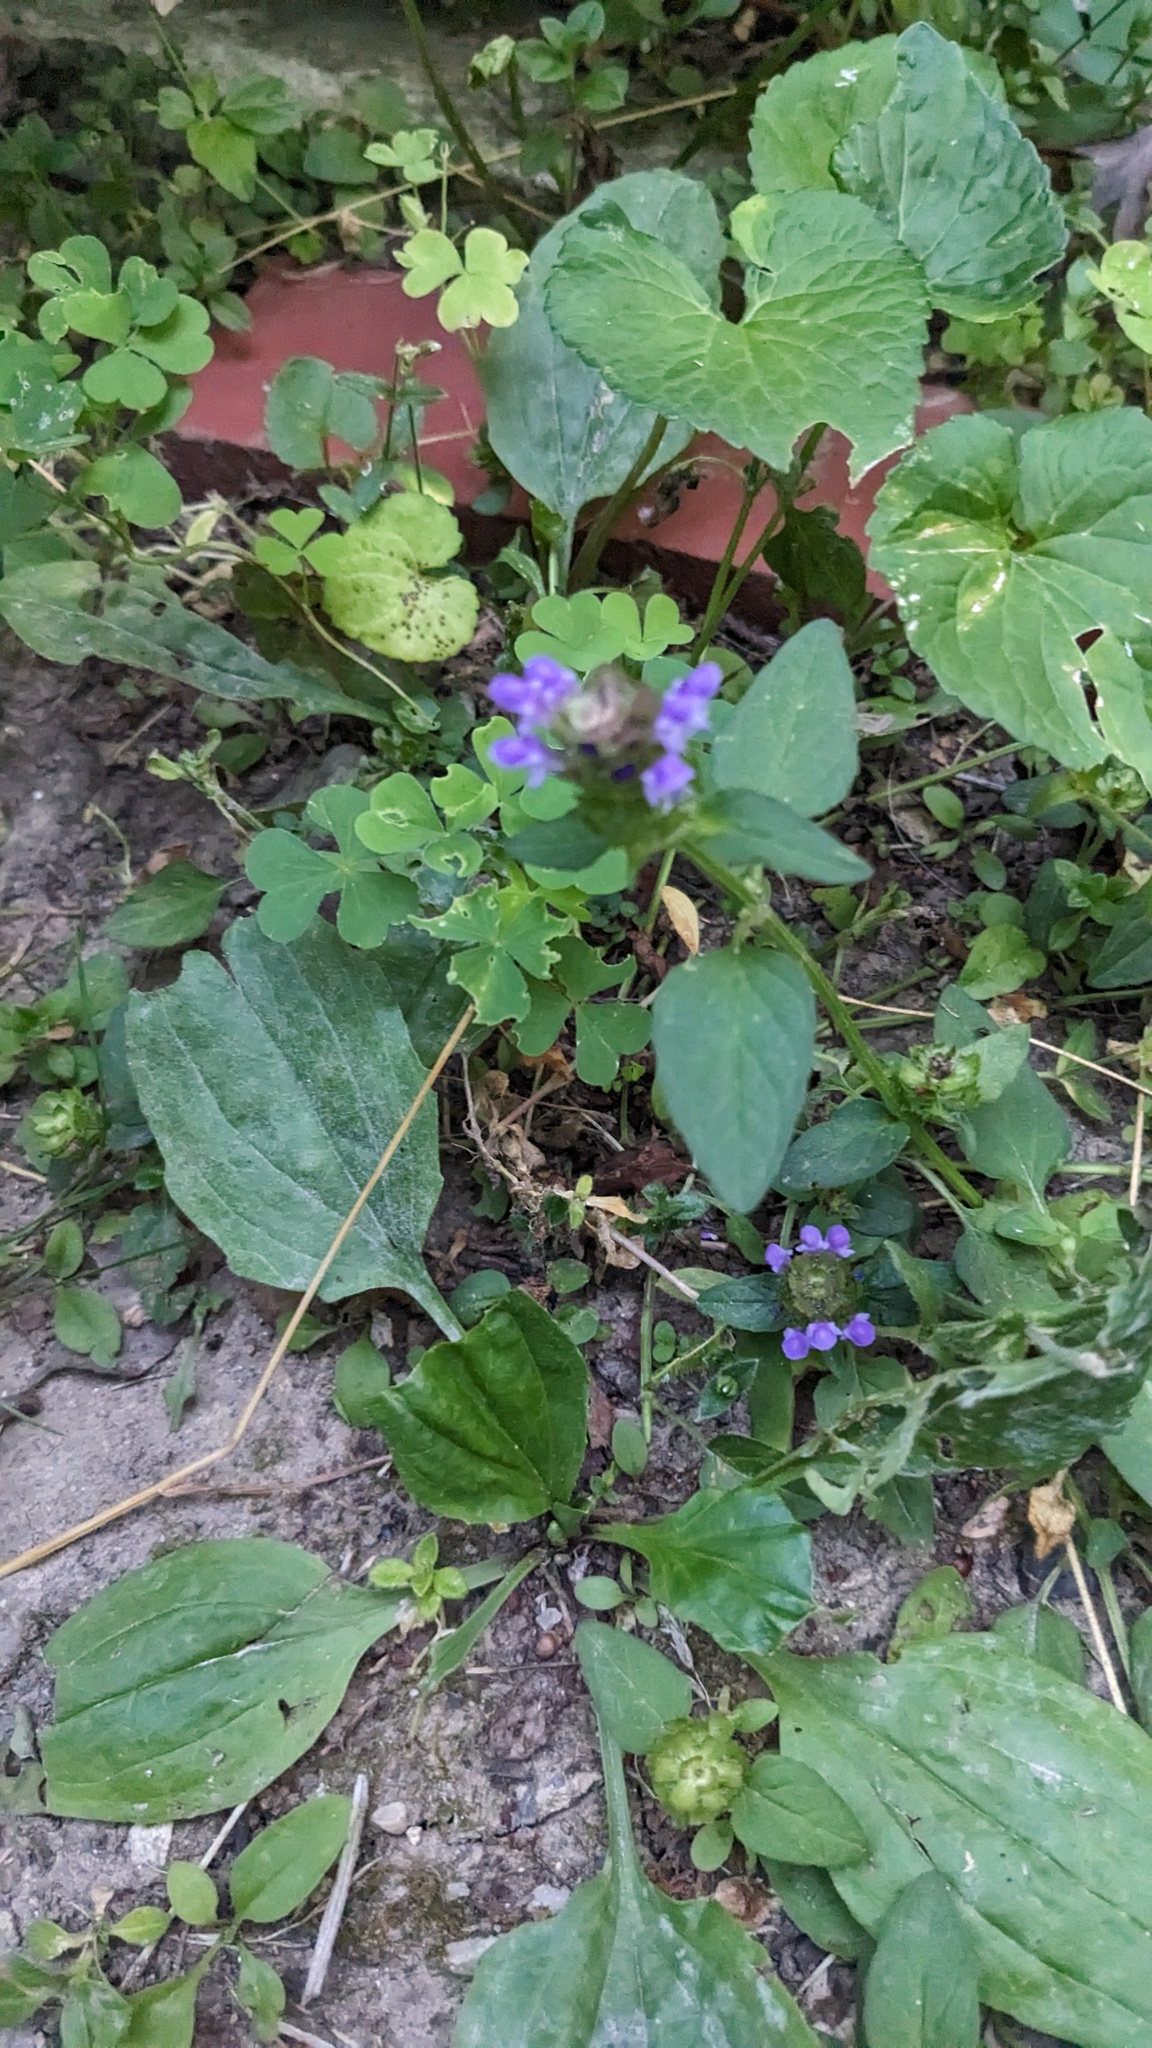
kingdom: Plantae
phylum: Tracheophyta
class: Magnoliopsida
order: Lamiales
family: Lamiaceae
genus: Prunella
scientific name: Prunella vulgaris
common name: Heal-all
